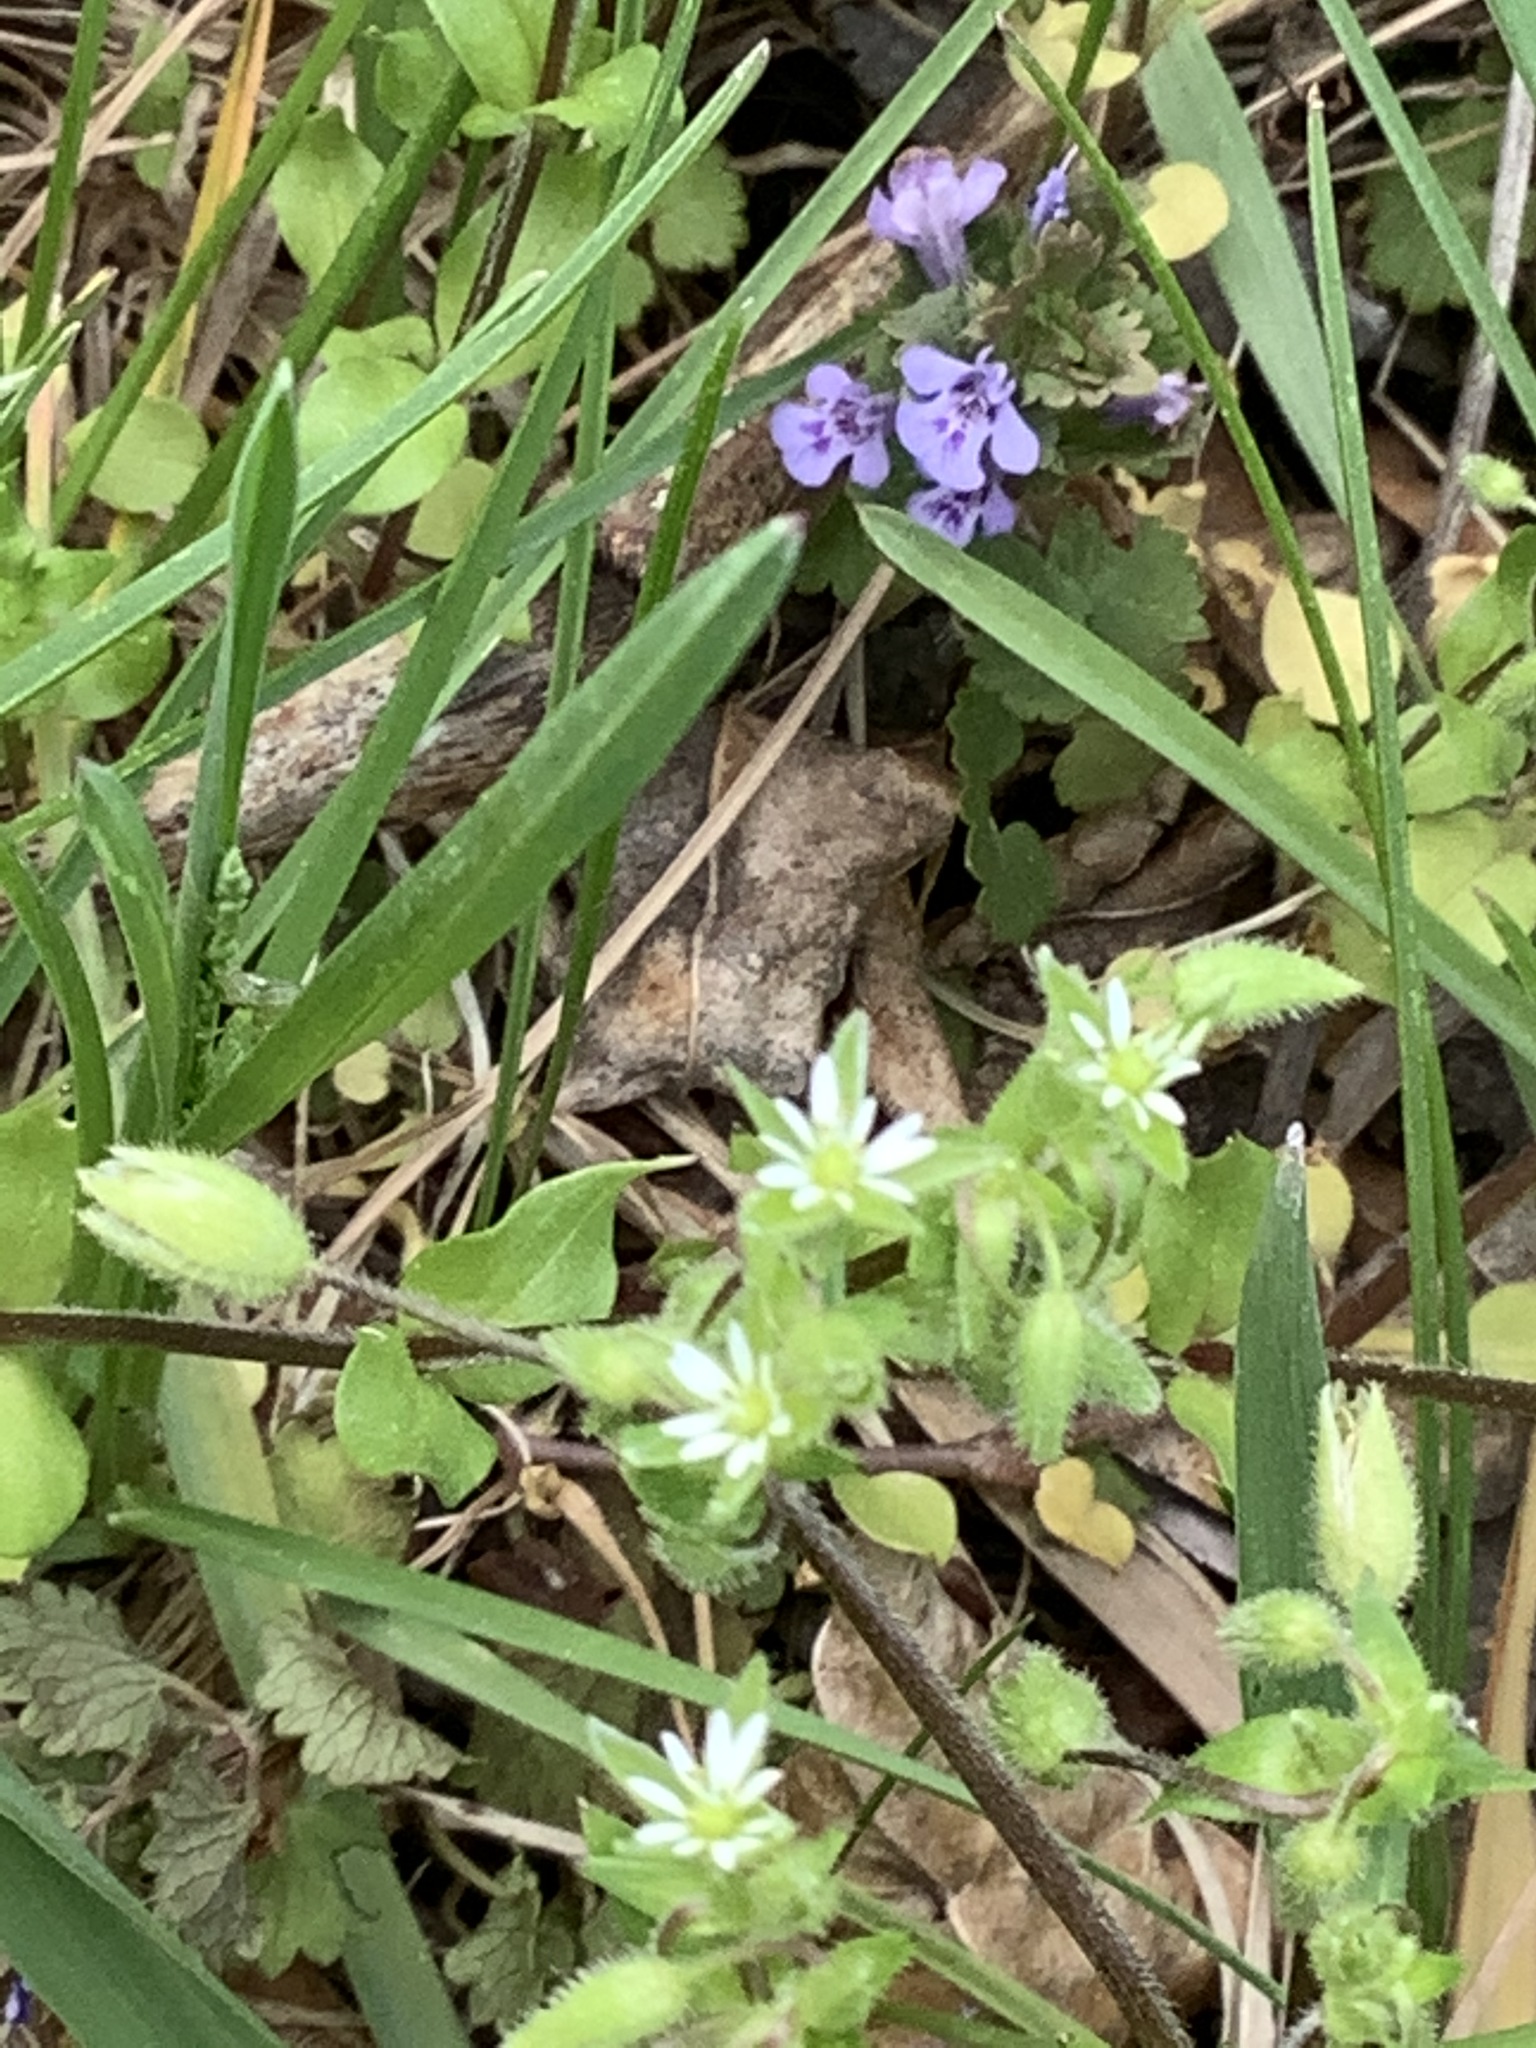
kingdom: Plantae
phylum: Tracheophyta
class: Magnoliopsida
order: Lamiales
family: Lamiaceae
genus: Glechoma
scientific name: Glechoma hederacea
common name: Ground ivy
